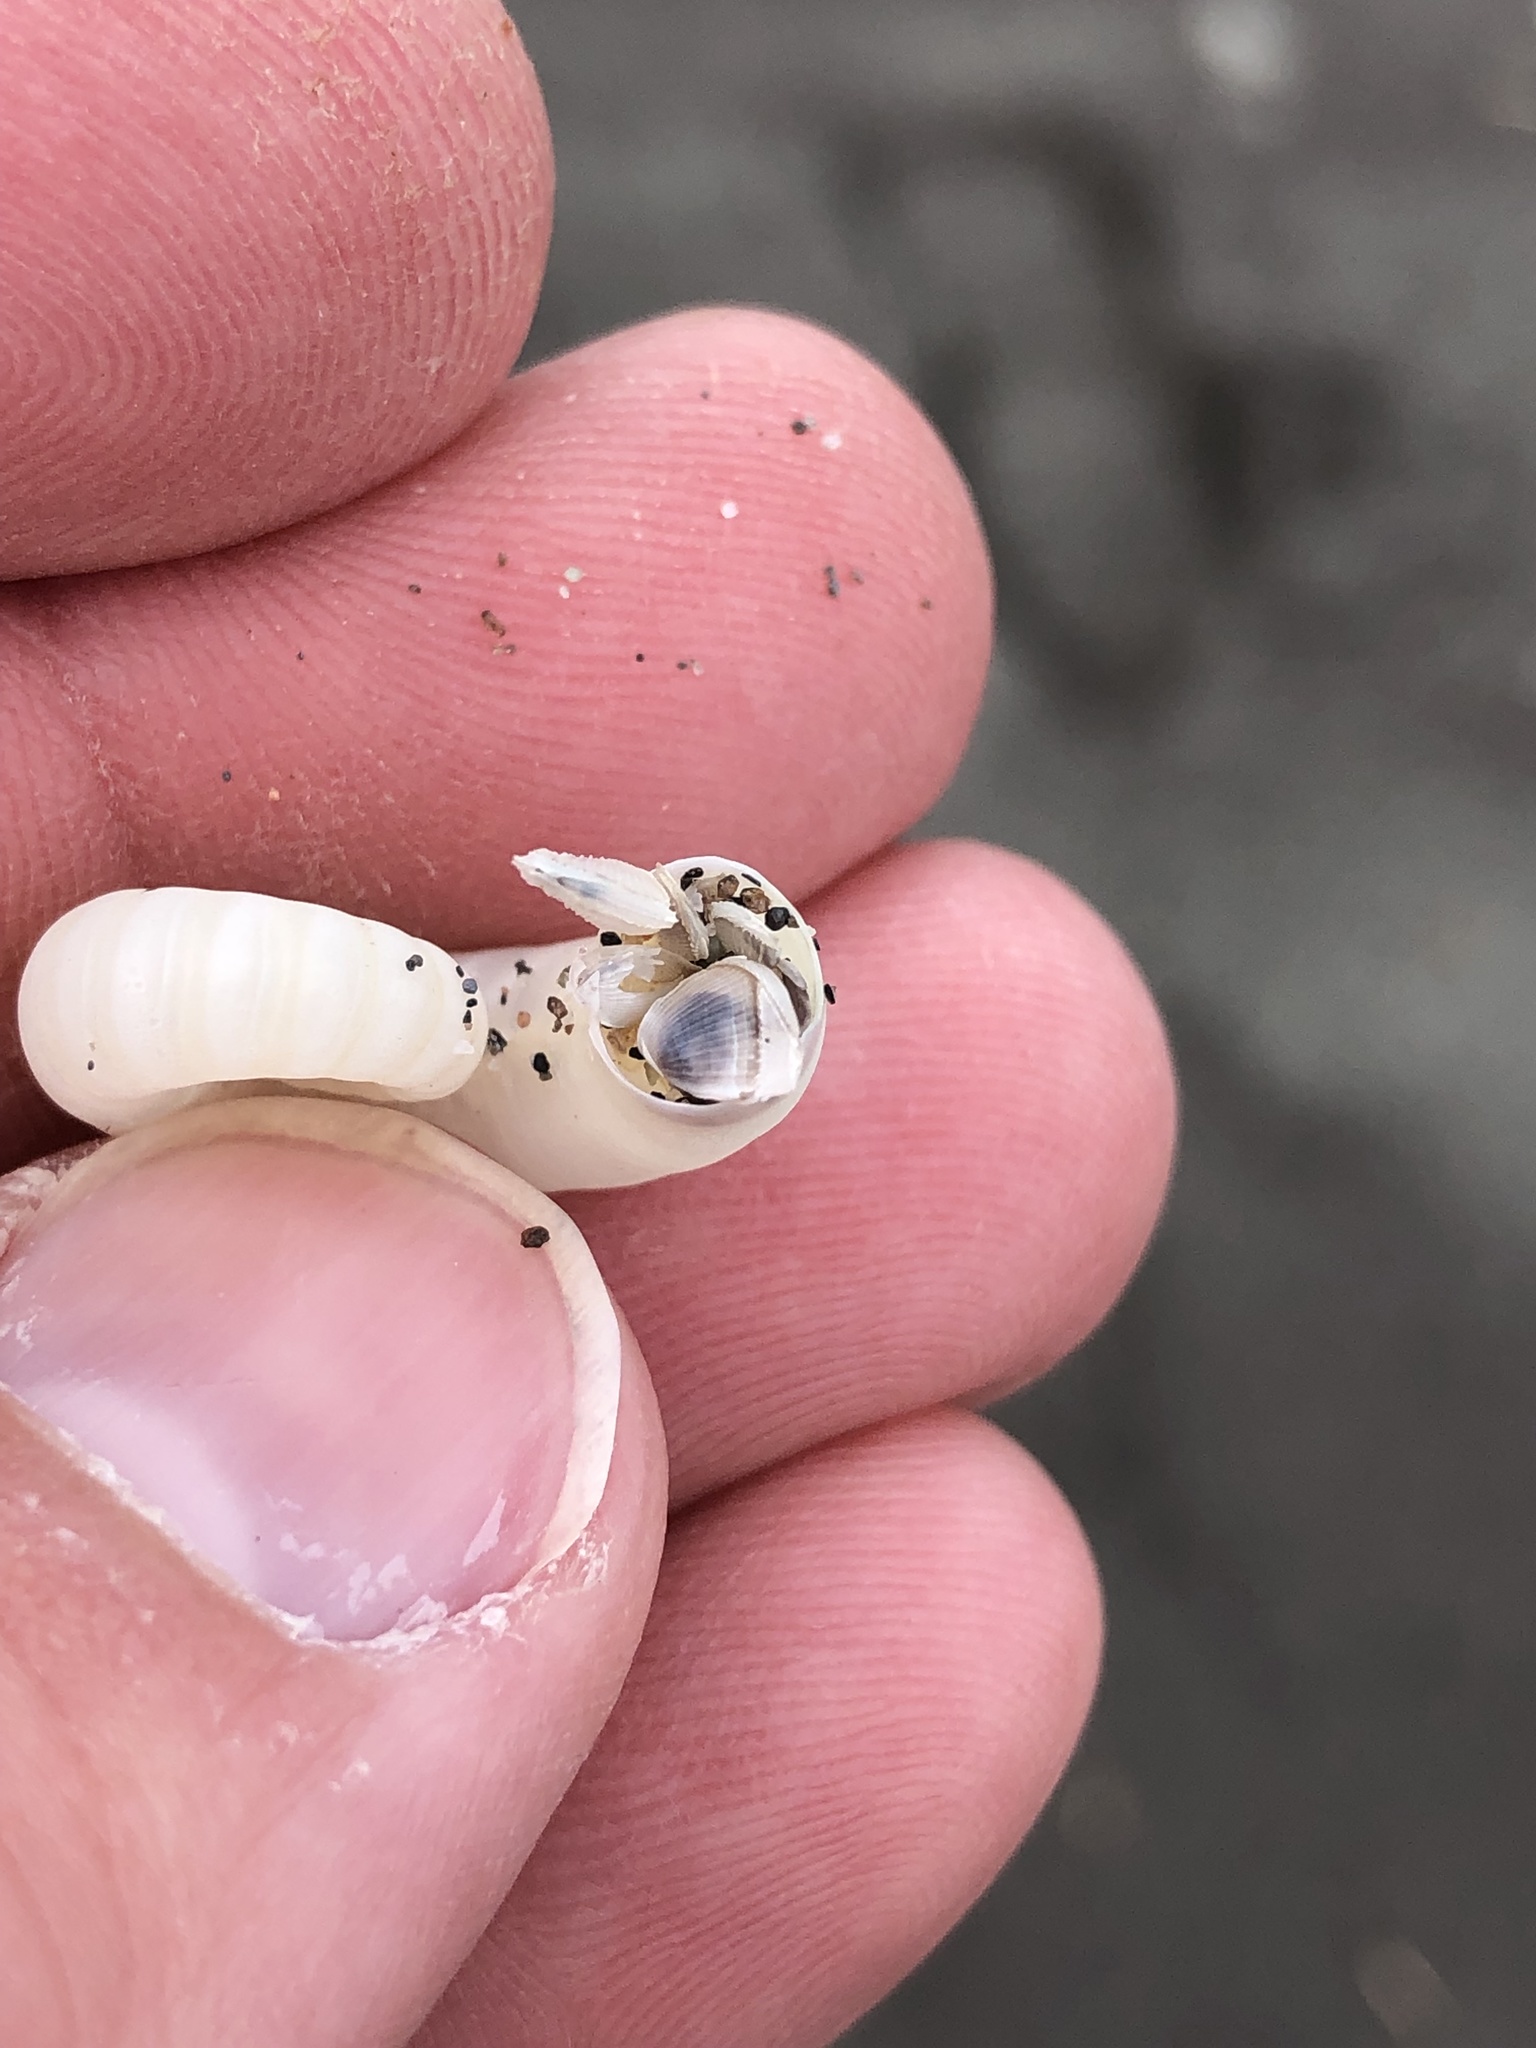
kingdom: Animalia
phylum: Mollusca
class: Cephalopoda
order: Spirulida
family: Spirulidae
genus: Spirula
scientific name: Spirula spirula
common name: Ram's horn squid
